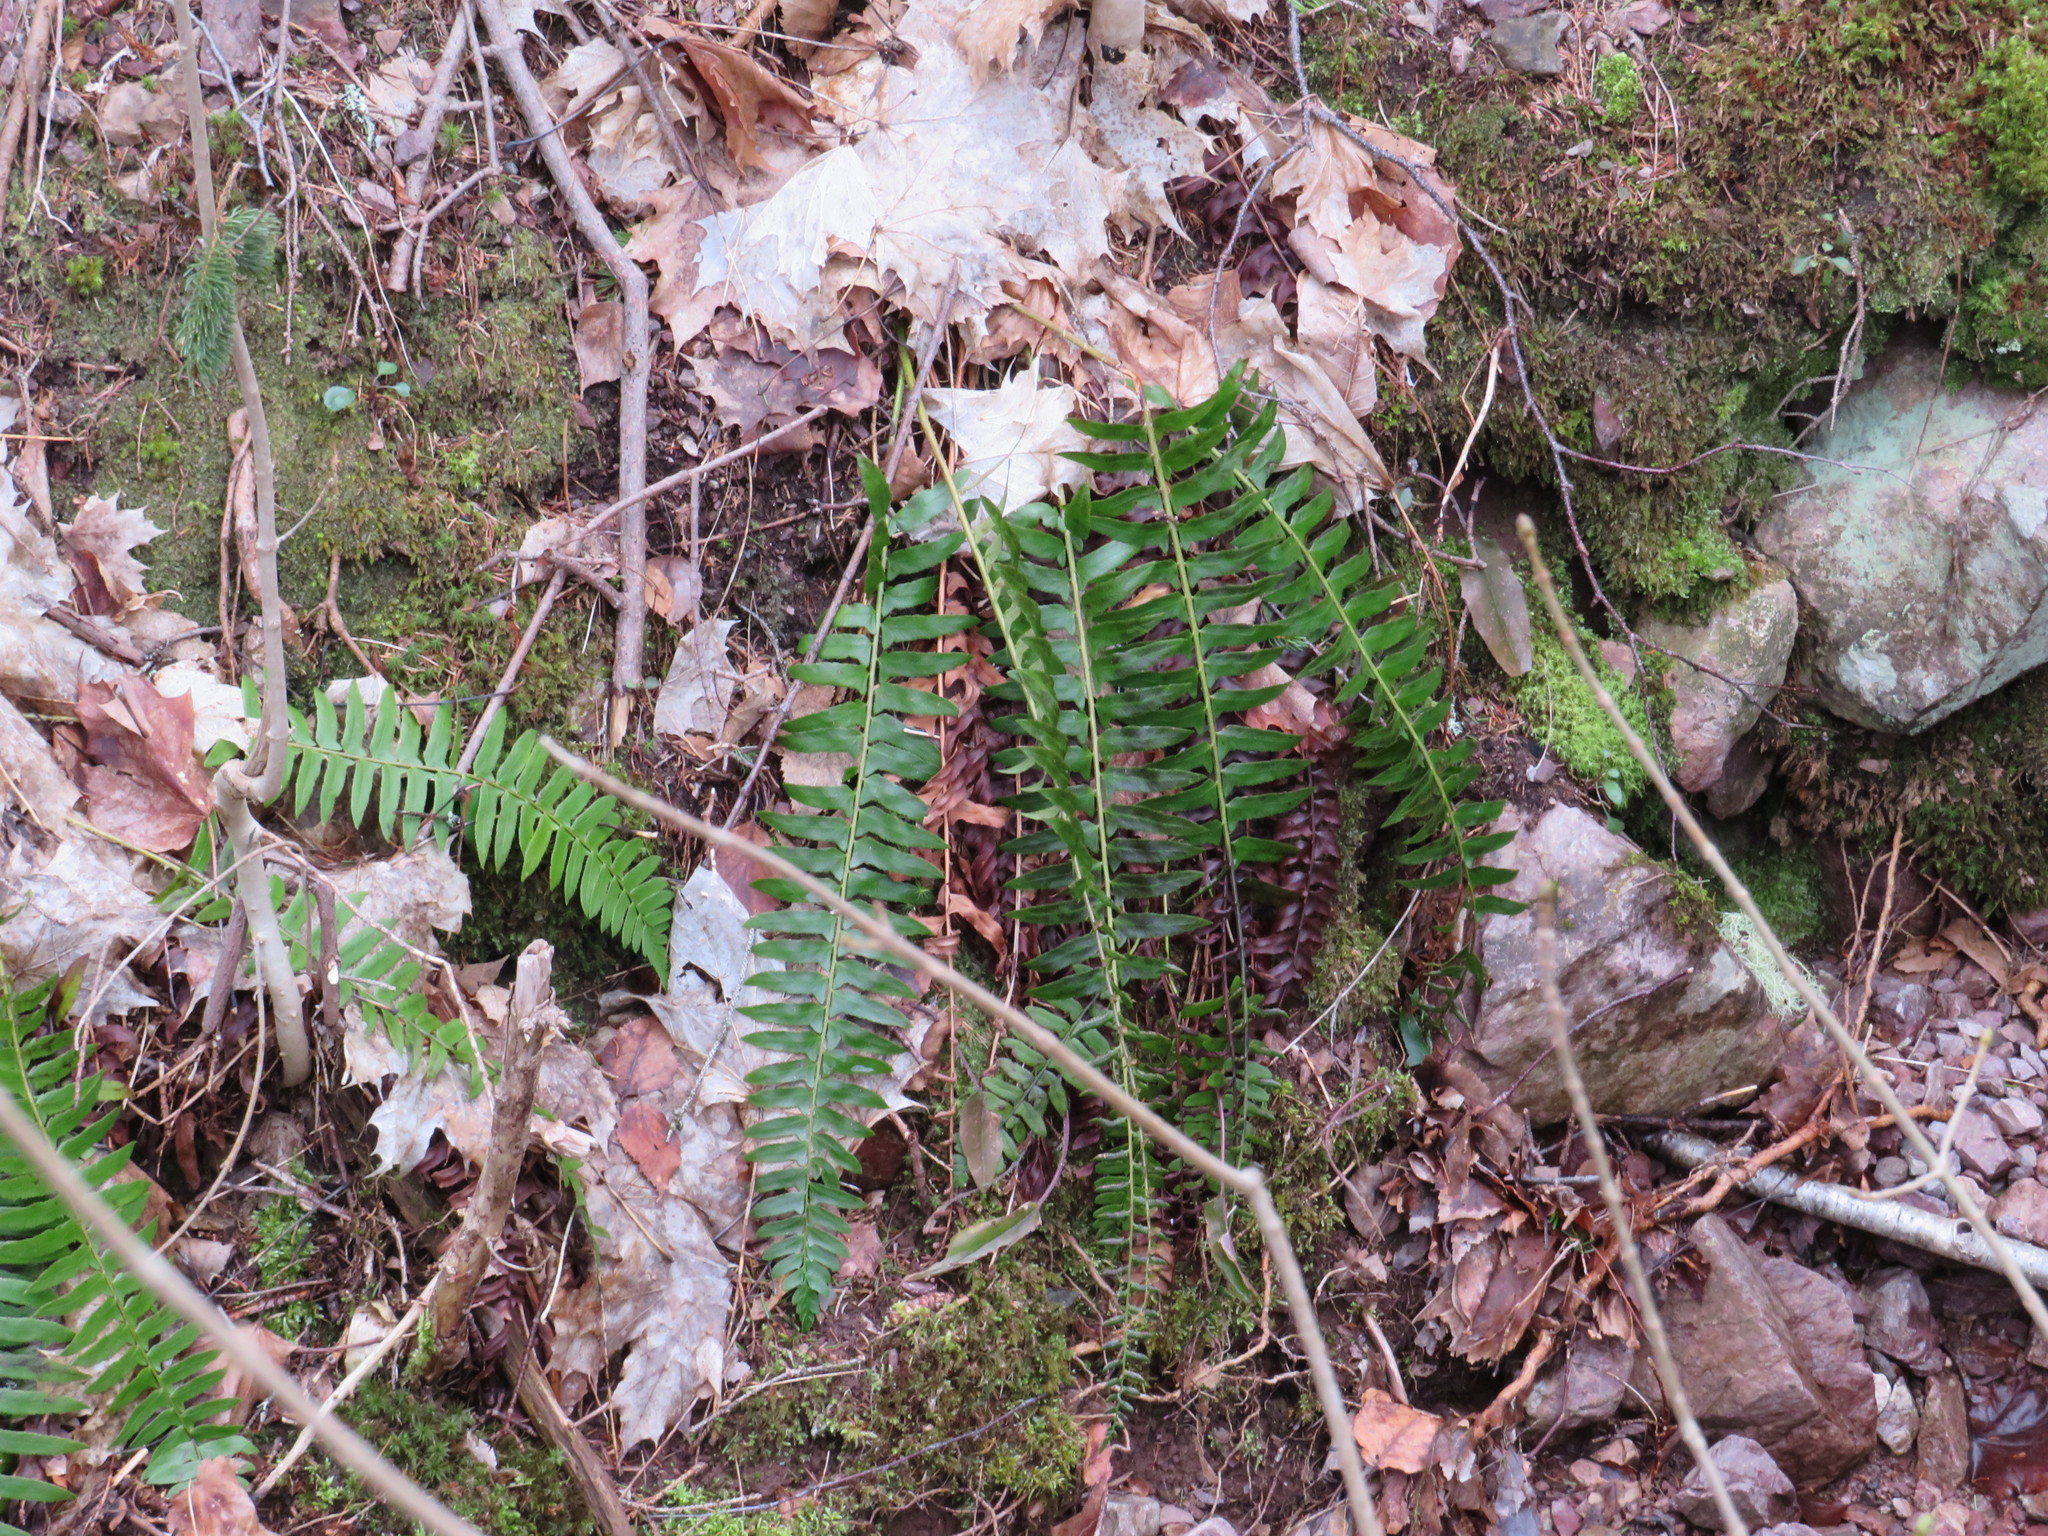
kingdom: Plantae
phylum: Tracheophyta
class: Polypodiopsida
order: Polypodiales
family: Dryopteridaceae
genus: Polystichum
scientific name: Polystichum acrostichoides
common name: Christmas fern
